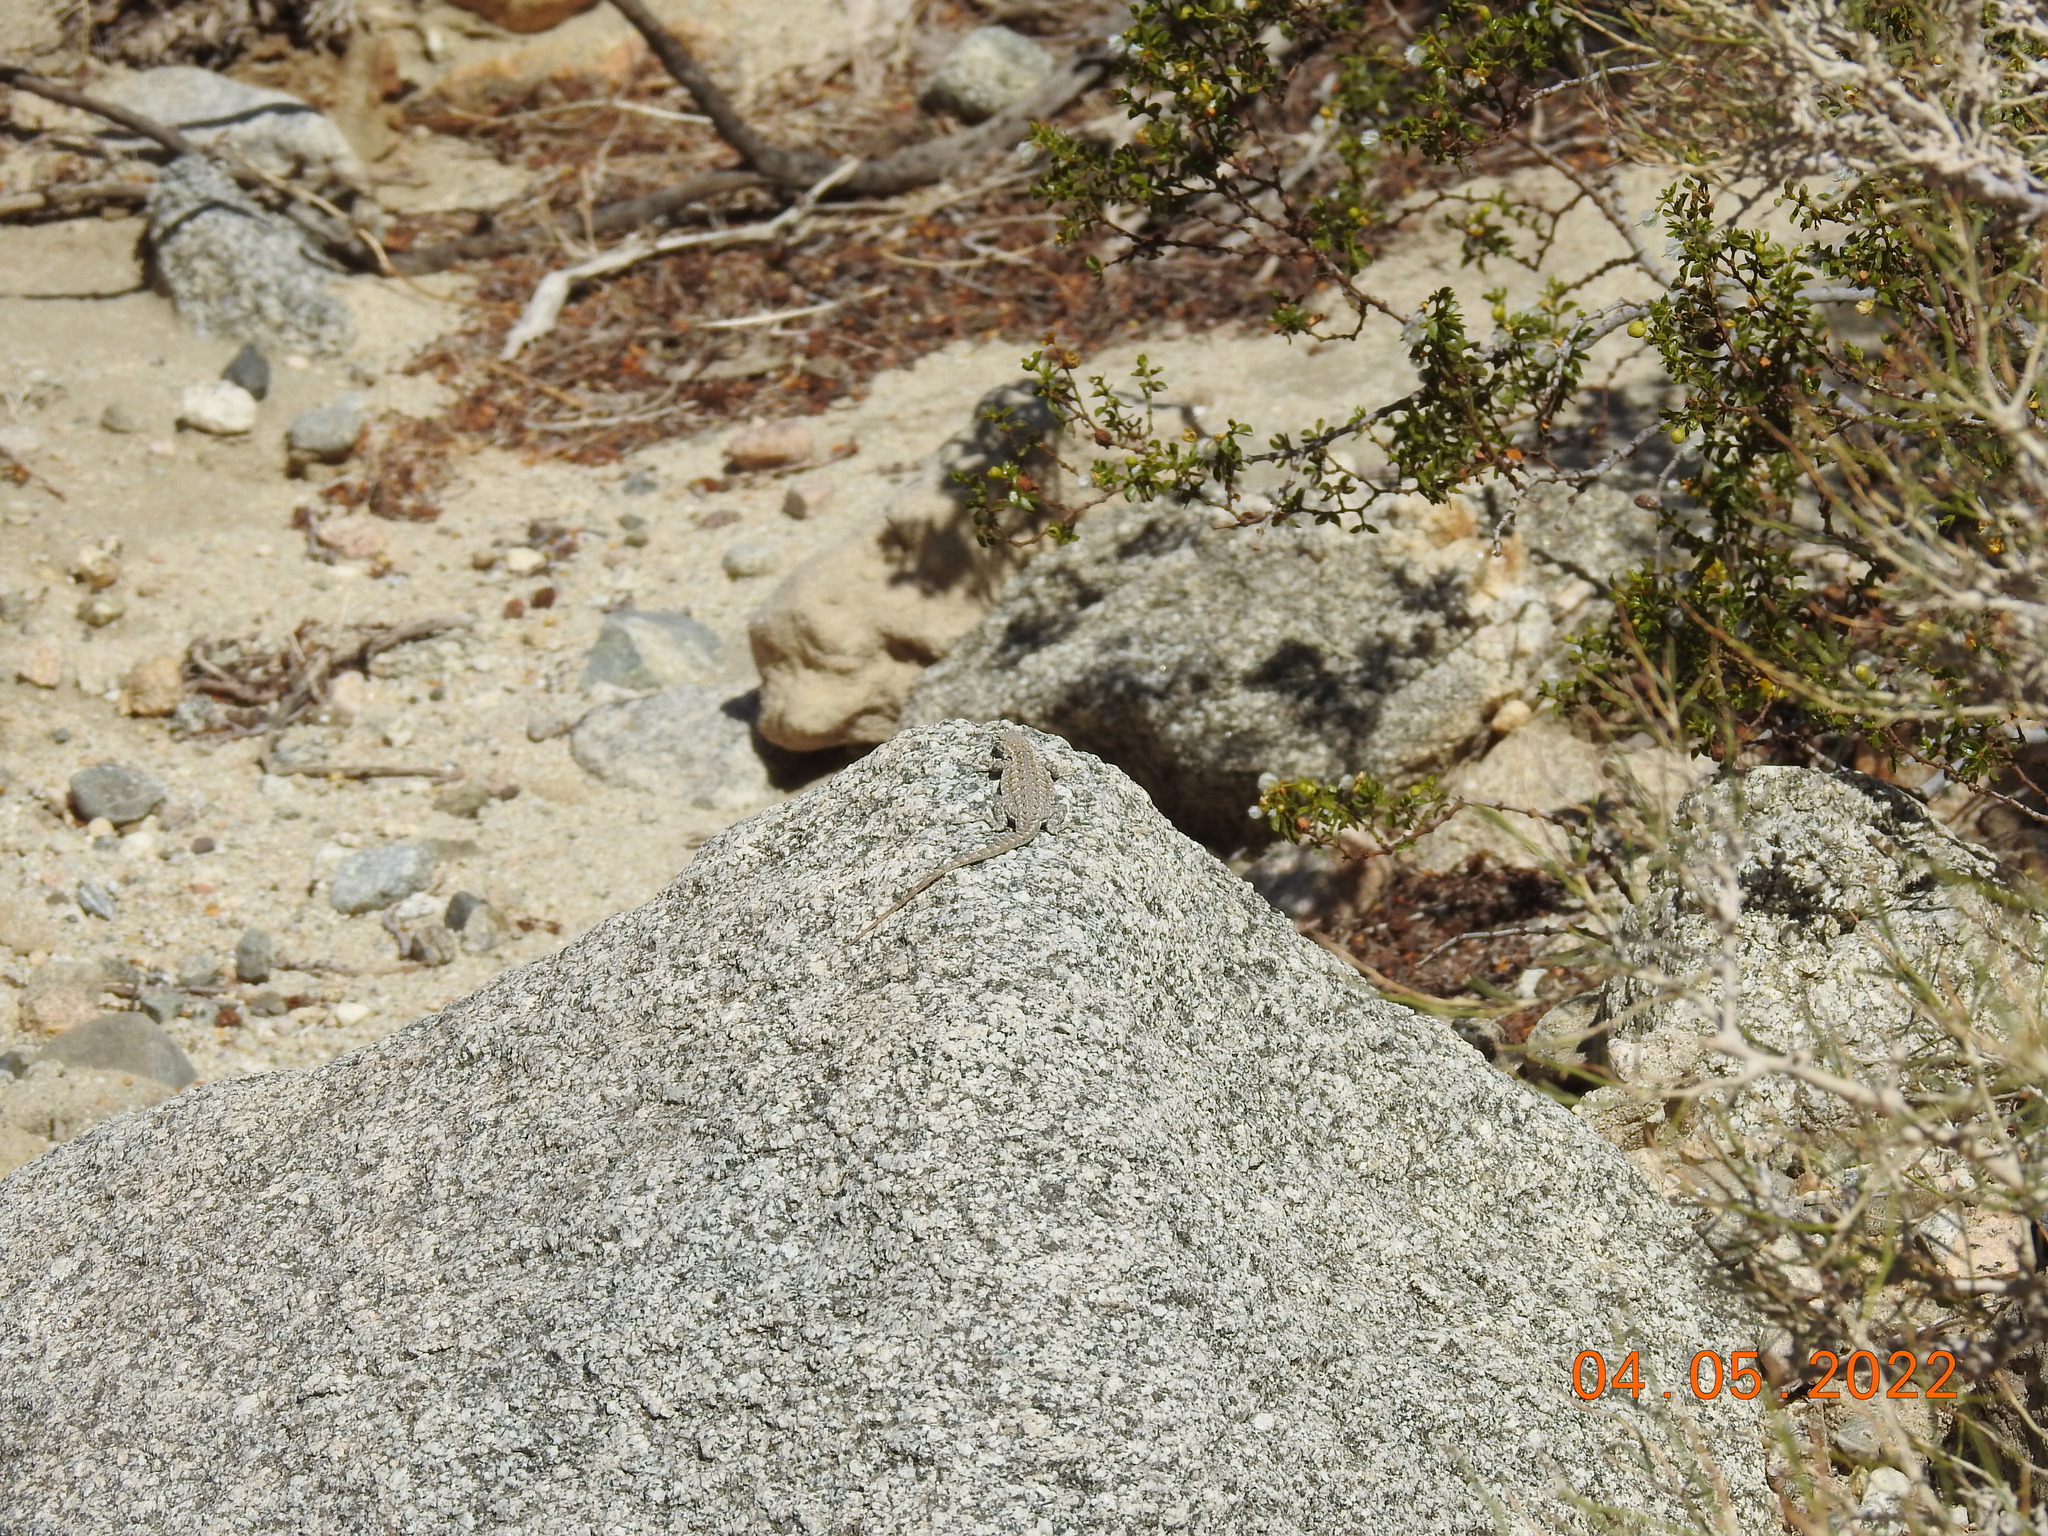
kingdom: Animalia
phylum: Chordata
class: Squamata
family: Phrynosomatidae
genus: Uta
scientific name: Uta stansburiana
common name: Side-blotched lizard
